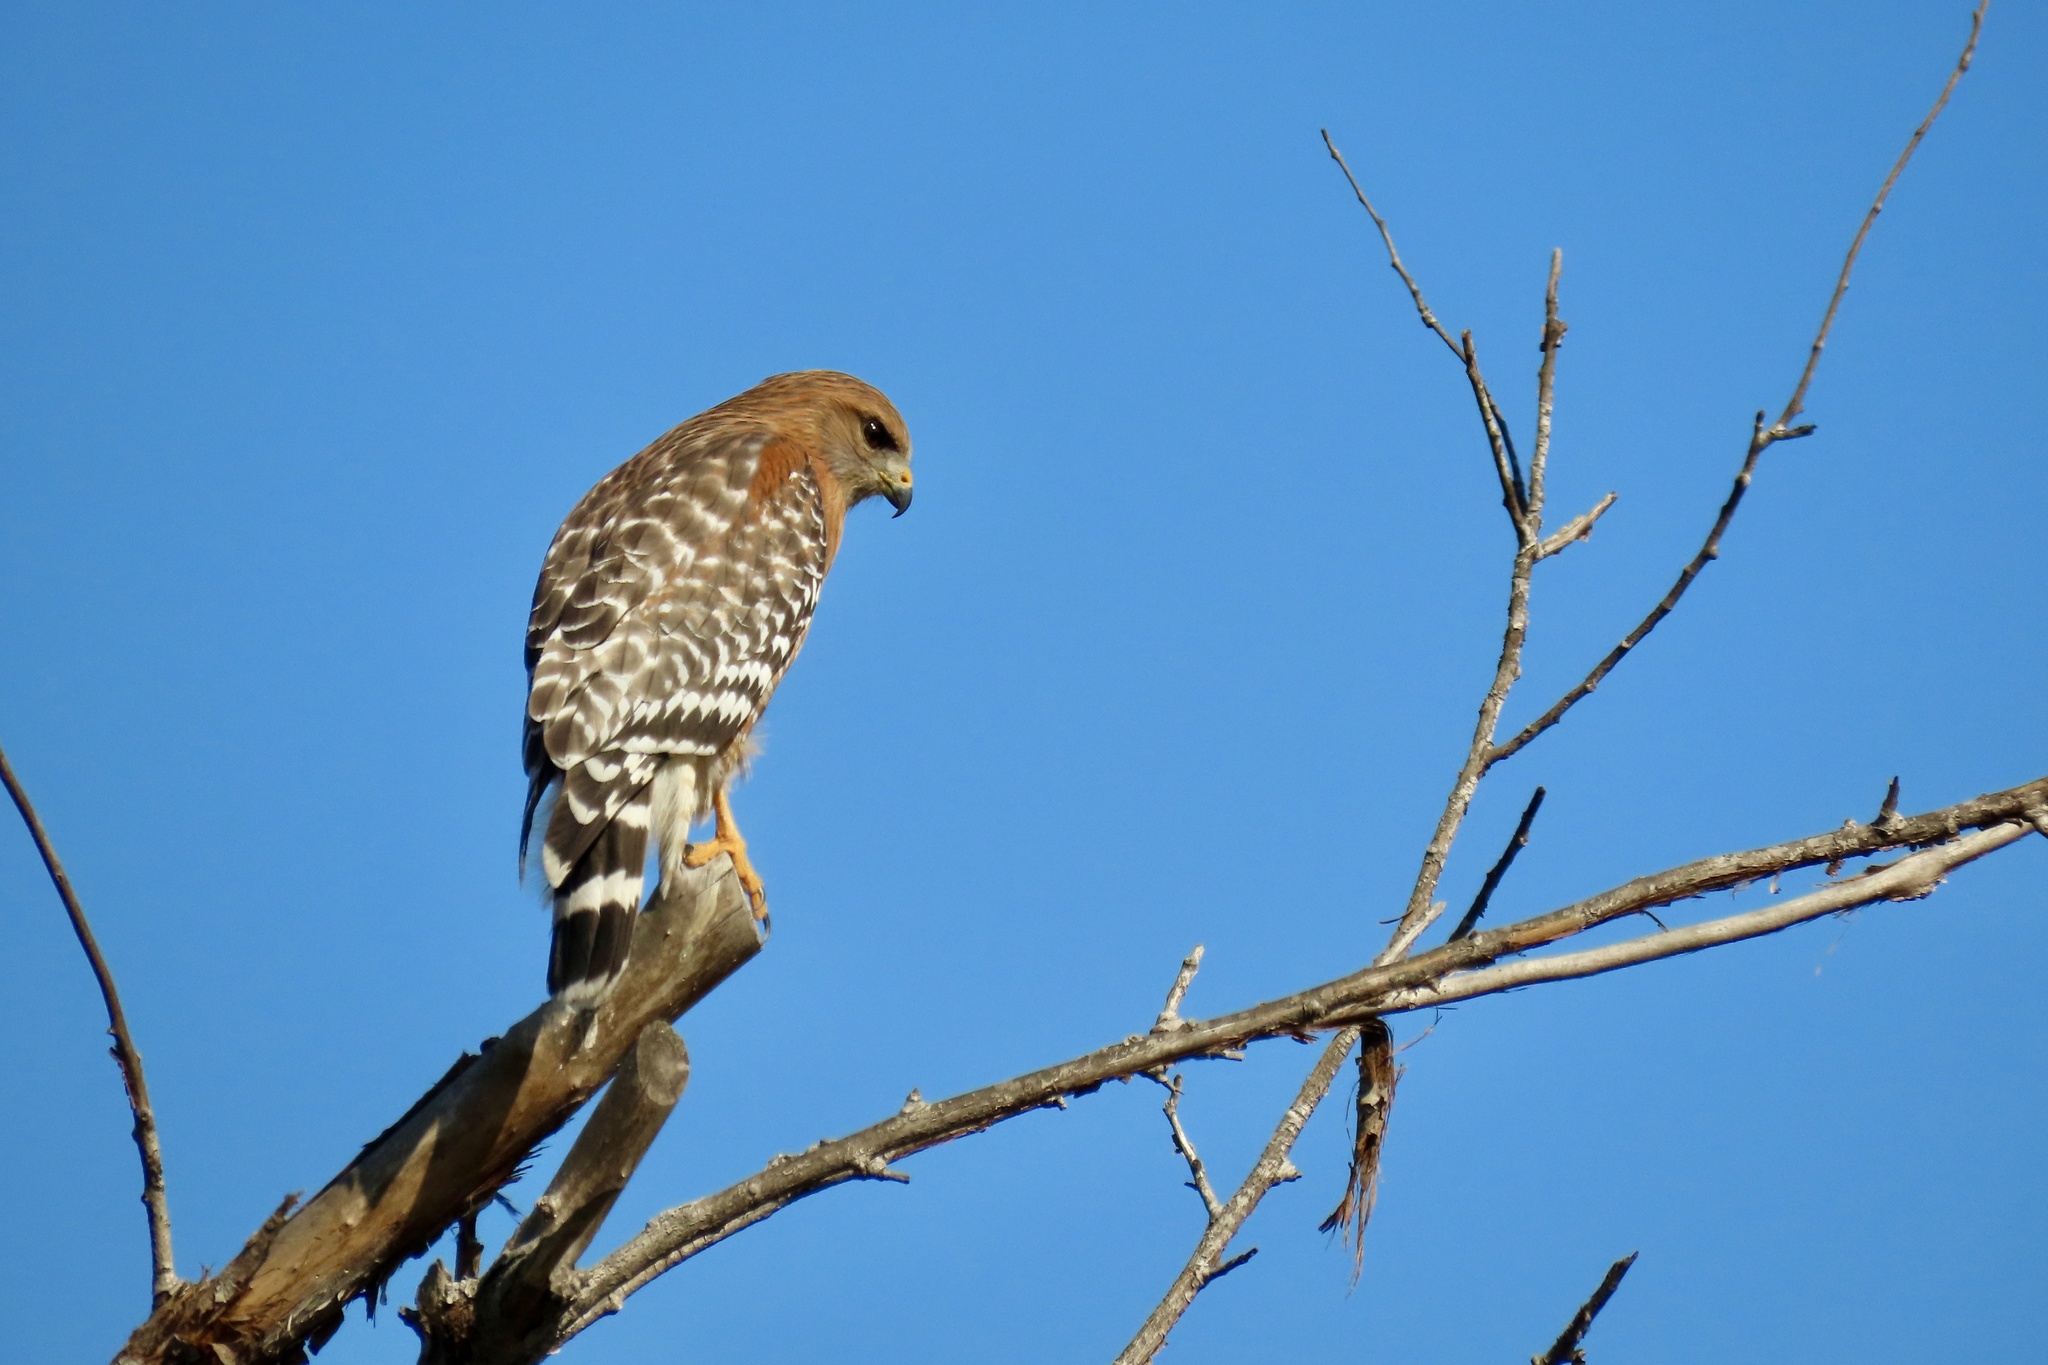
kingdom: Animalia
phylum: Chordata
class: Aves
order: Accipitriformes
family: Accipitridae
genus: Buteo
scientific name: Buteo lineatus
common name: Red-shouldered hawk
